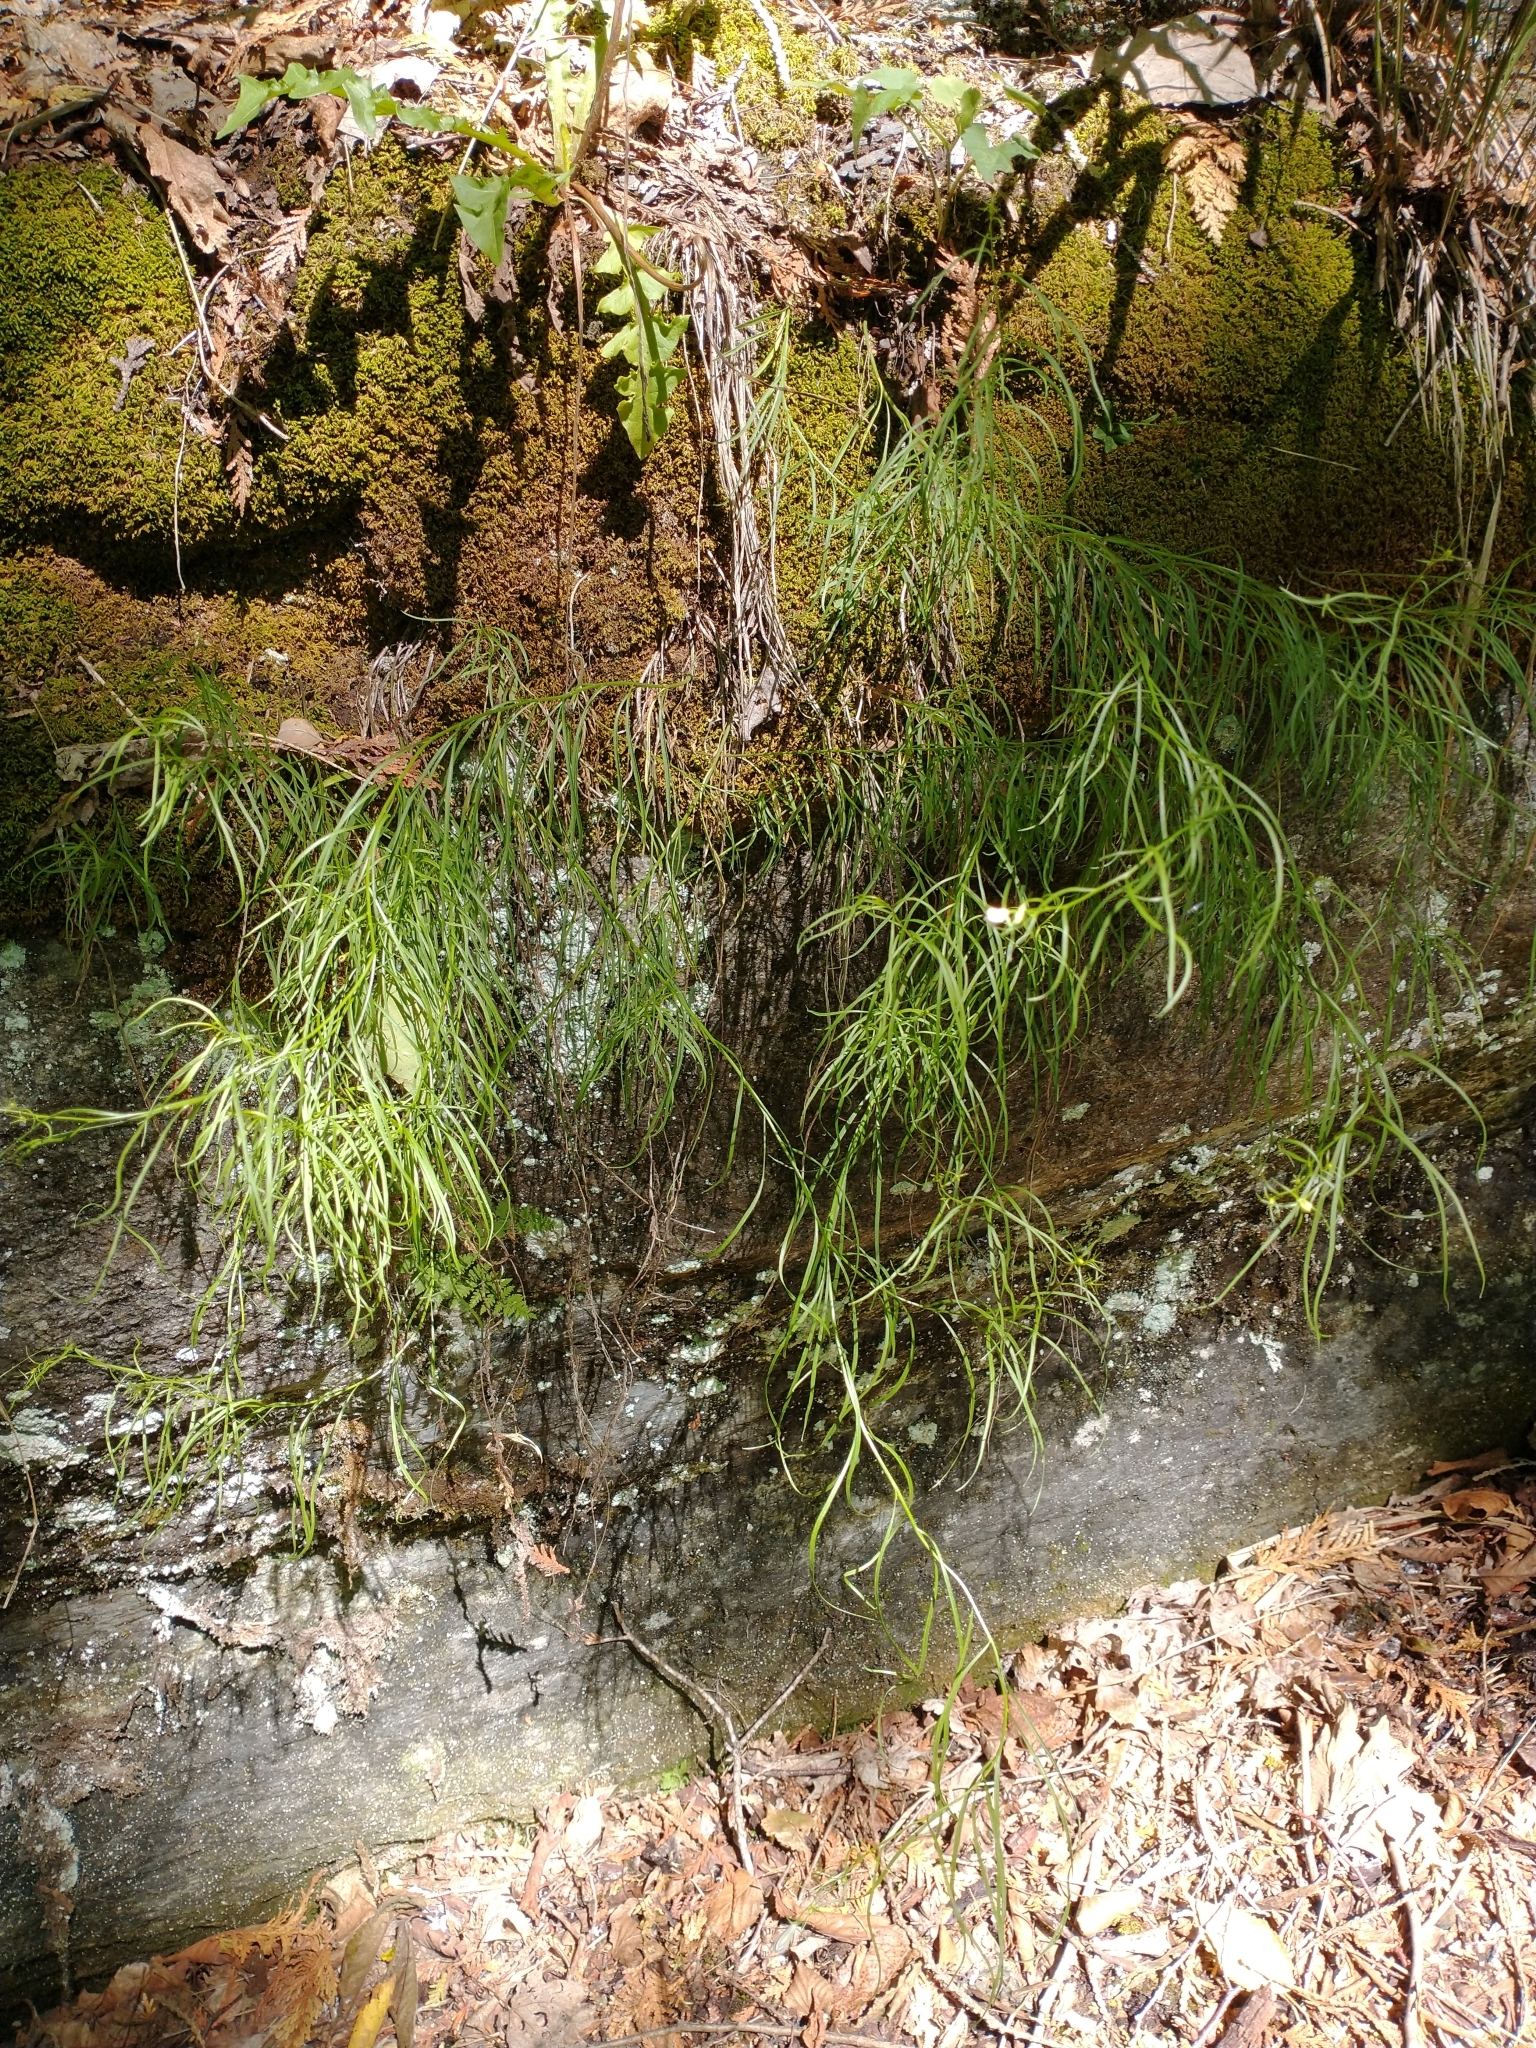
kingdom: Plantae
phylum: Tracheophyta
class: Magnoliopsida
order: Asterales
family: Campanulaceae
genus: Campanula
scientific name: Campanula intercedens
